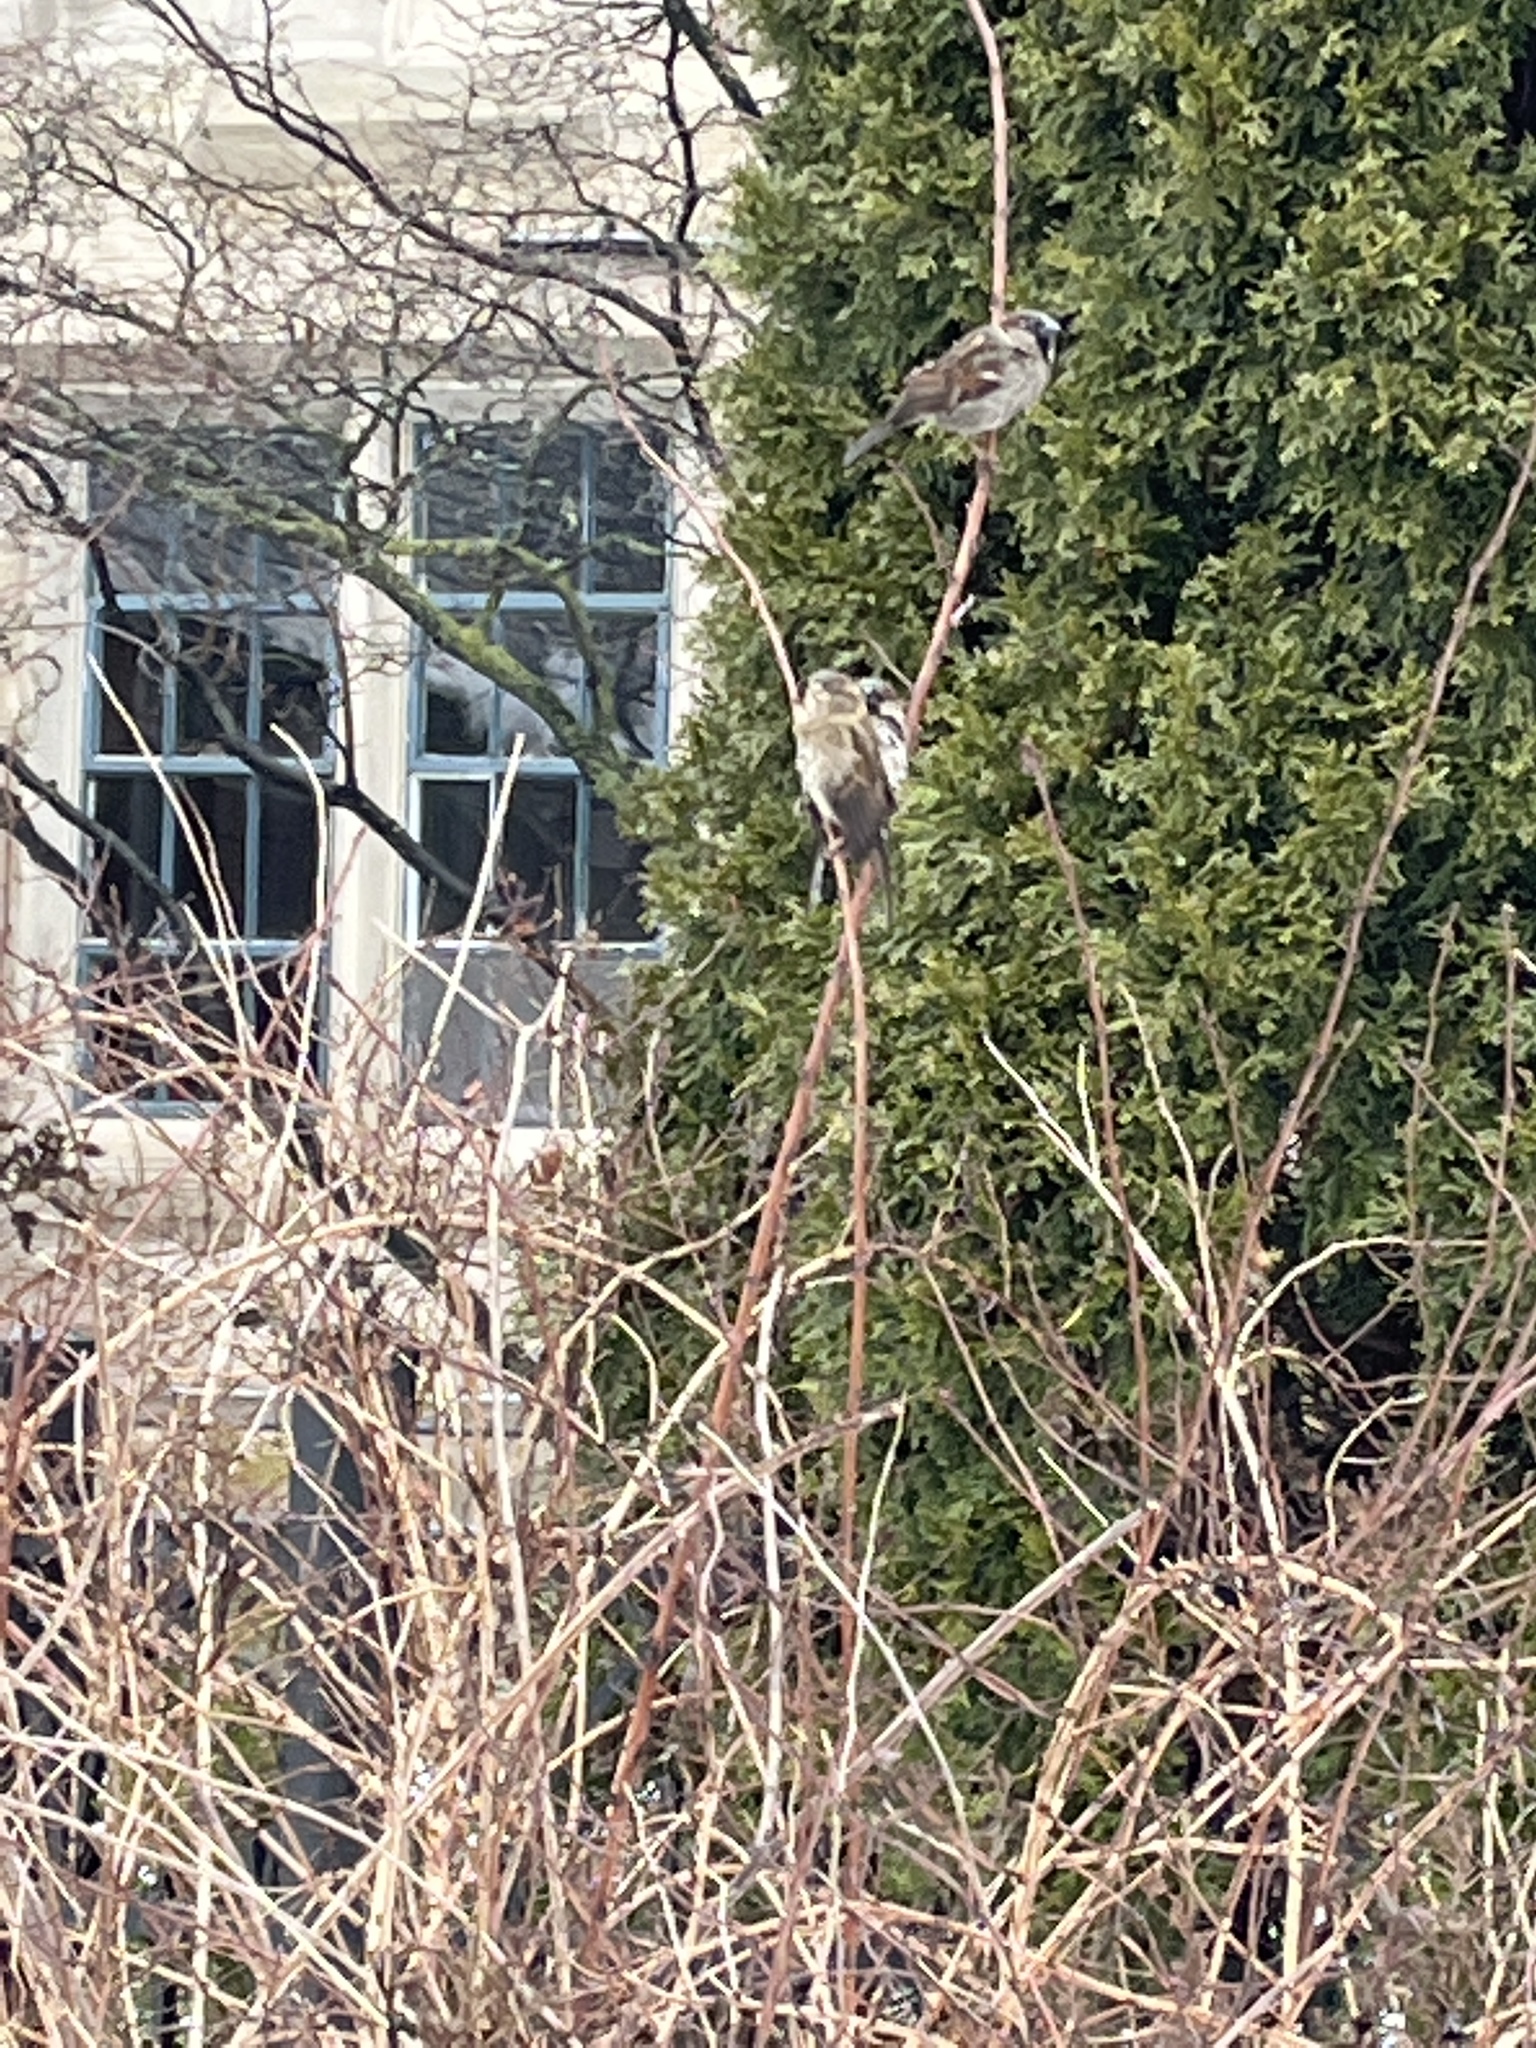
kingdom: Animalia
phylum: Chordata
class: Aves
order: Passeriformes
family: Passeridae
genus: Passer
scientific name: Passer domesticus
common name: House sparrow
